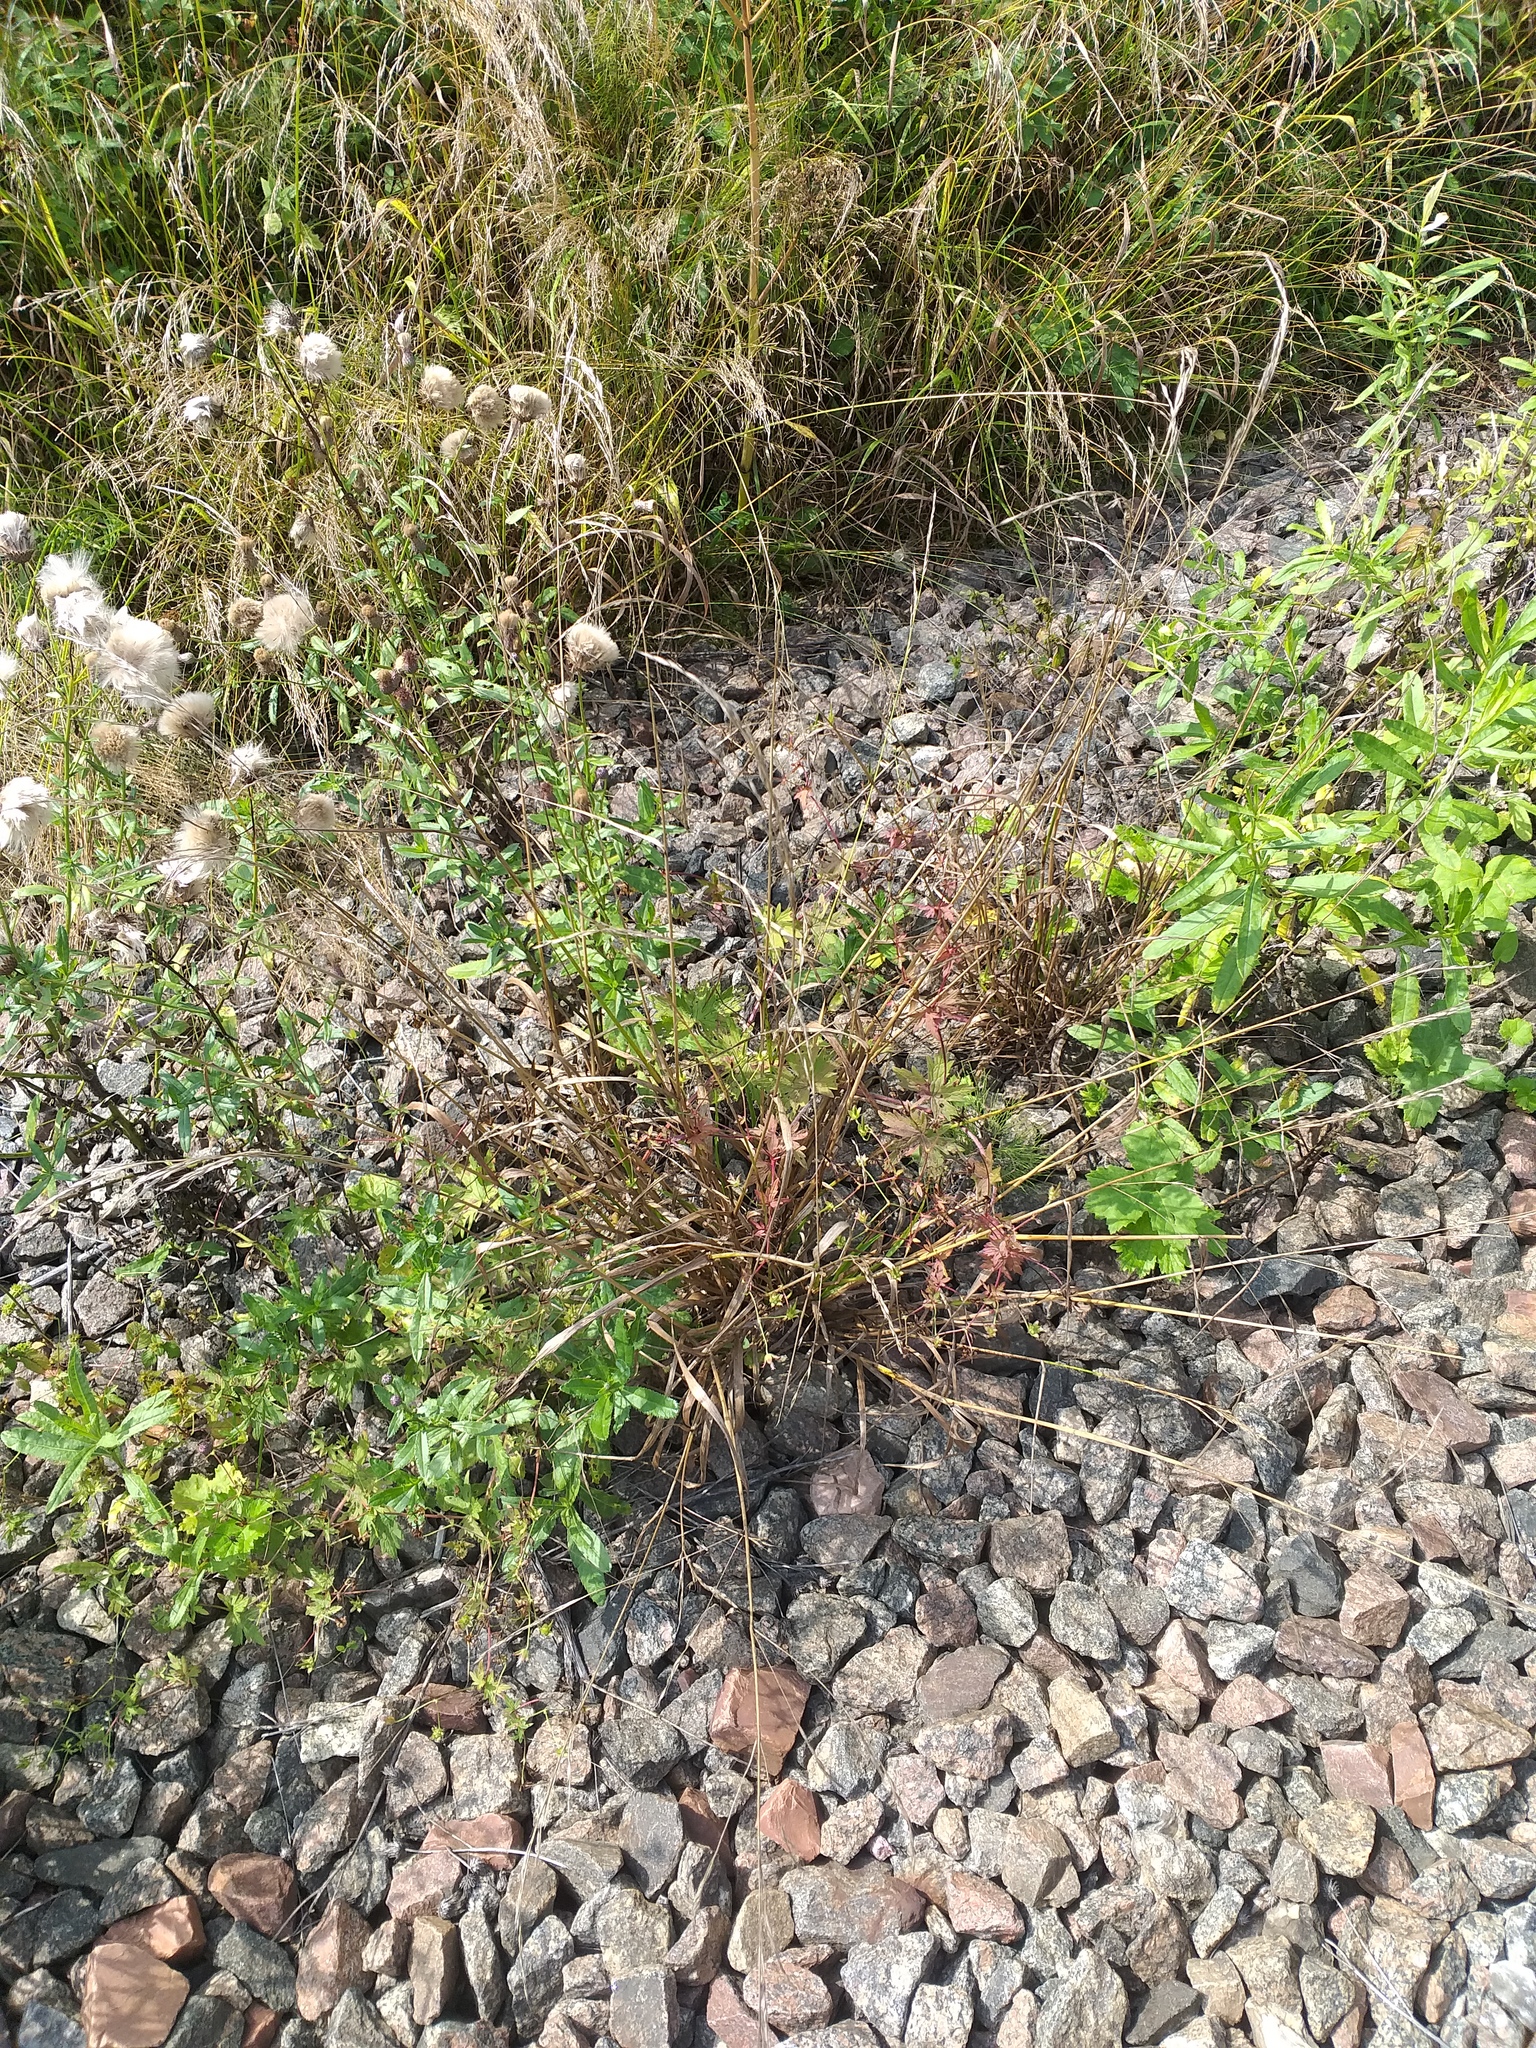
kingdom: Plantae
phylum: Tracheophyta
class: Liliopsida
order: Poales
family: Poaceae
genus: Lolium
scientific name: Lolium giganteum
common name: Giant fescue
